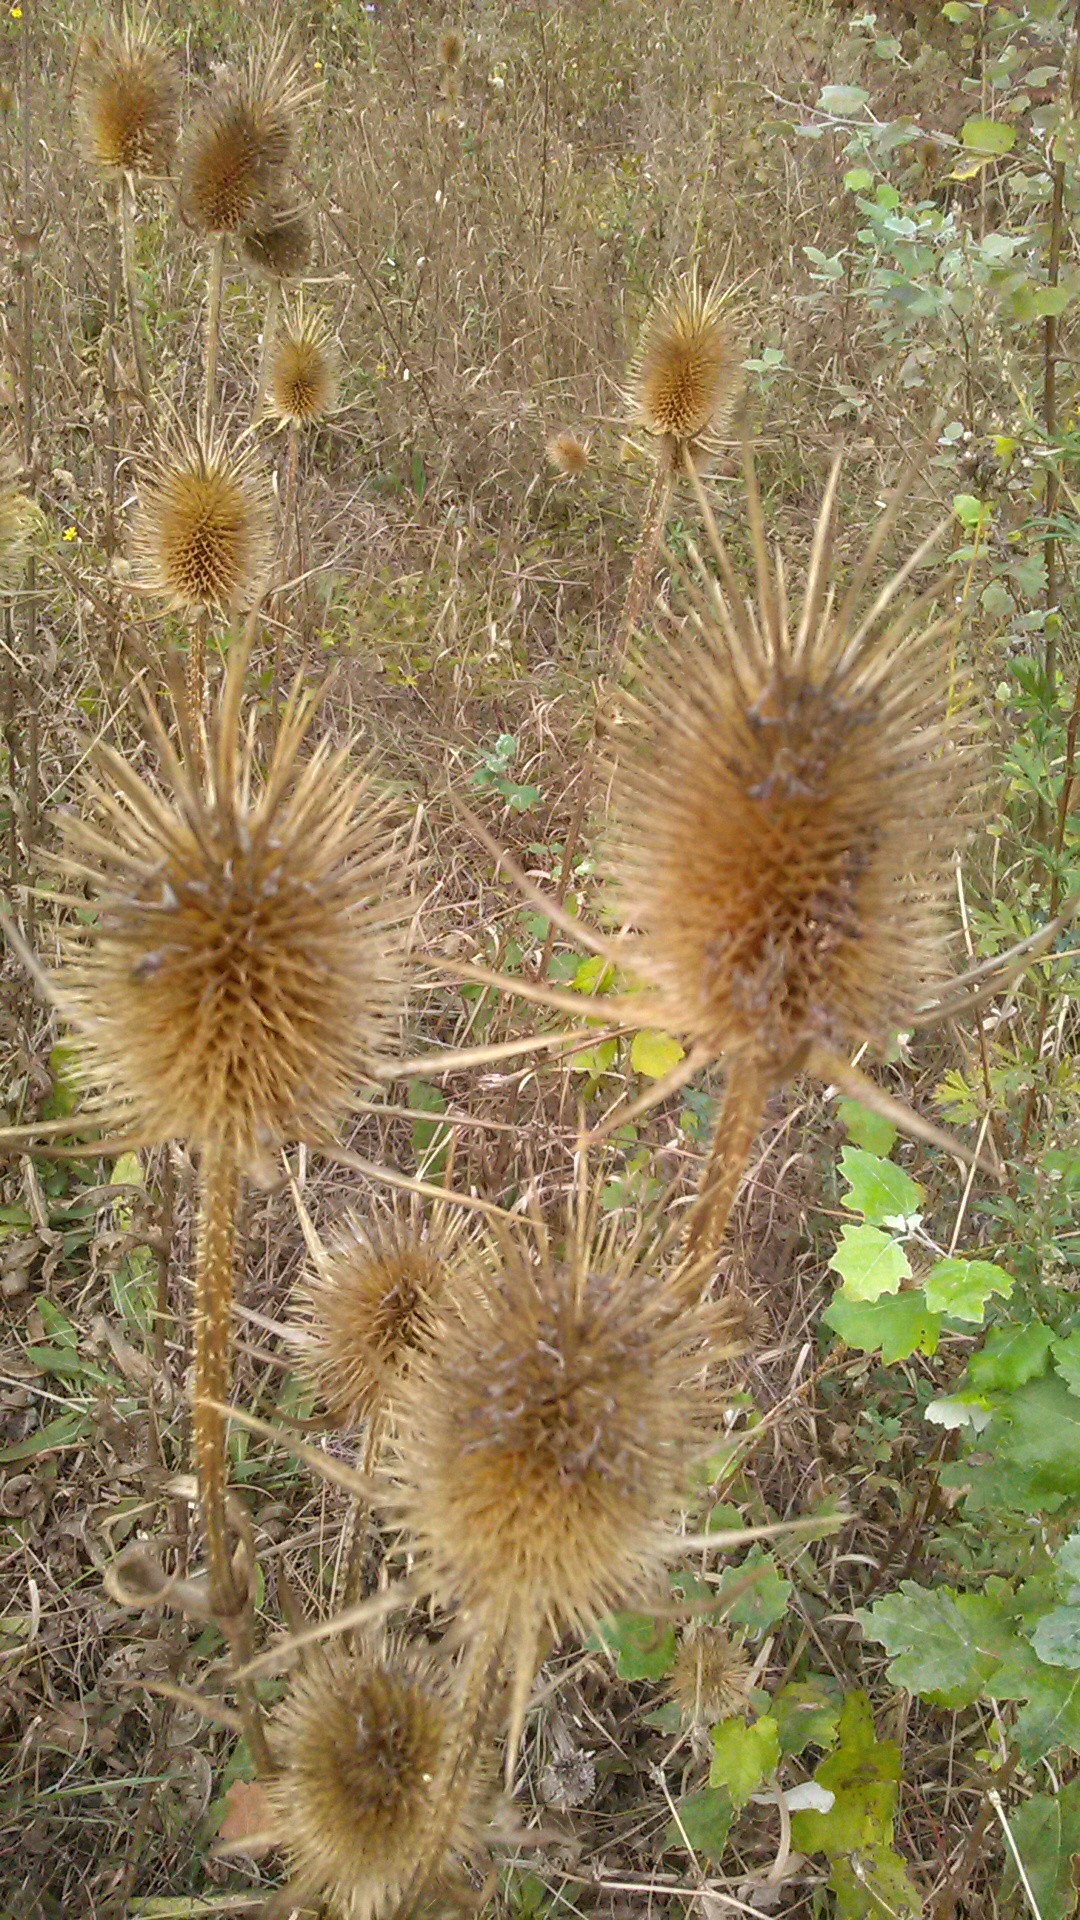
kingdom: Plantae
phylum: Tracheophyta
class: Magnoliopsida
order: Dipsacales
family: Caprifoliaceae
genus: Dipsacus
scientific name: Dipsacus laciniatus
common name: Cut-leaved teasel
